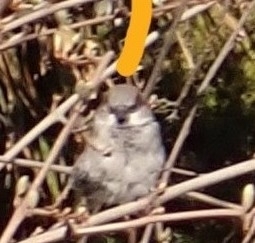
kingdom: Animalia
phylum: Chordata
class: Aves
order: Passeriformes
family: Passeridae
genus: Passer
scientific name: Passer domesticus
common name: House sparrow
